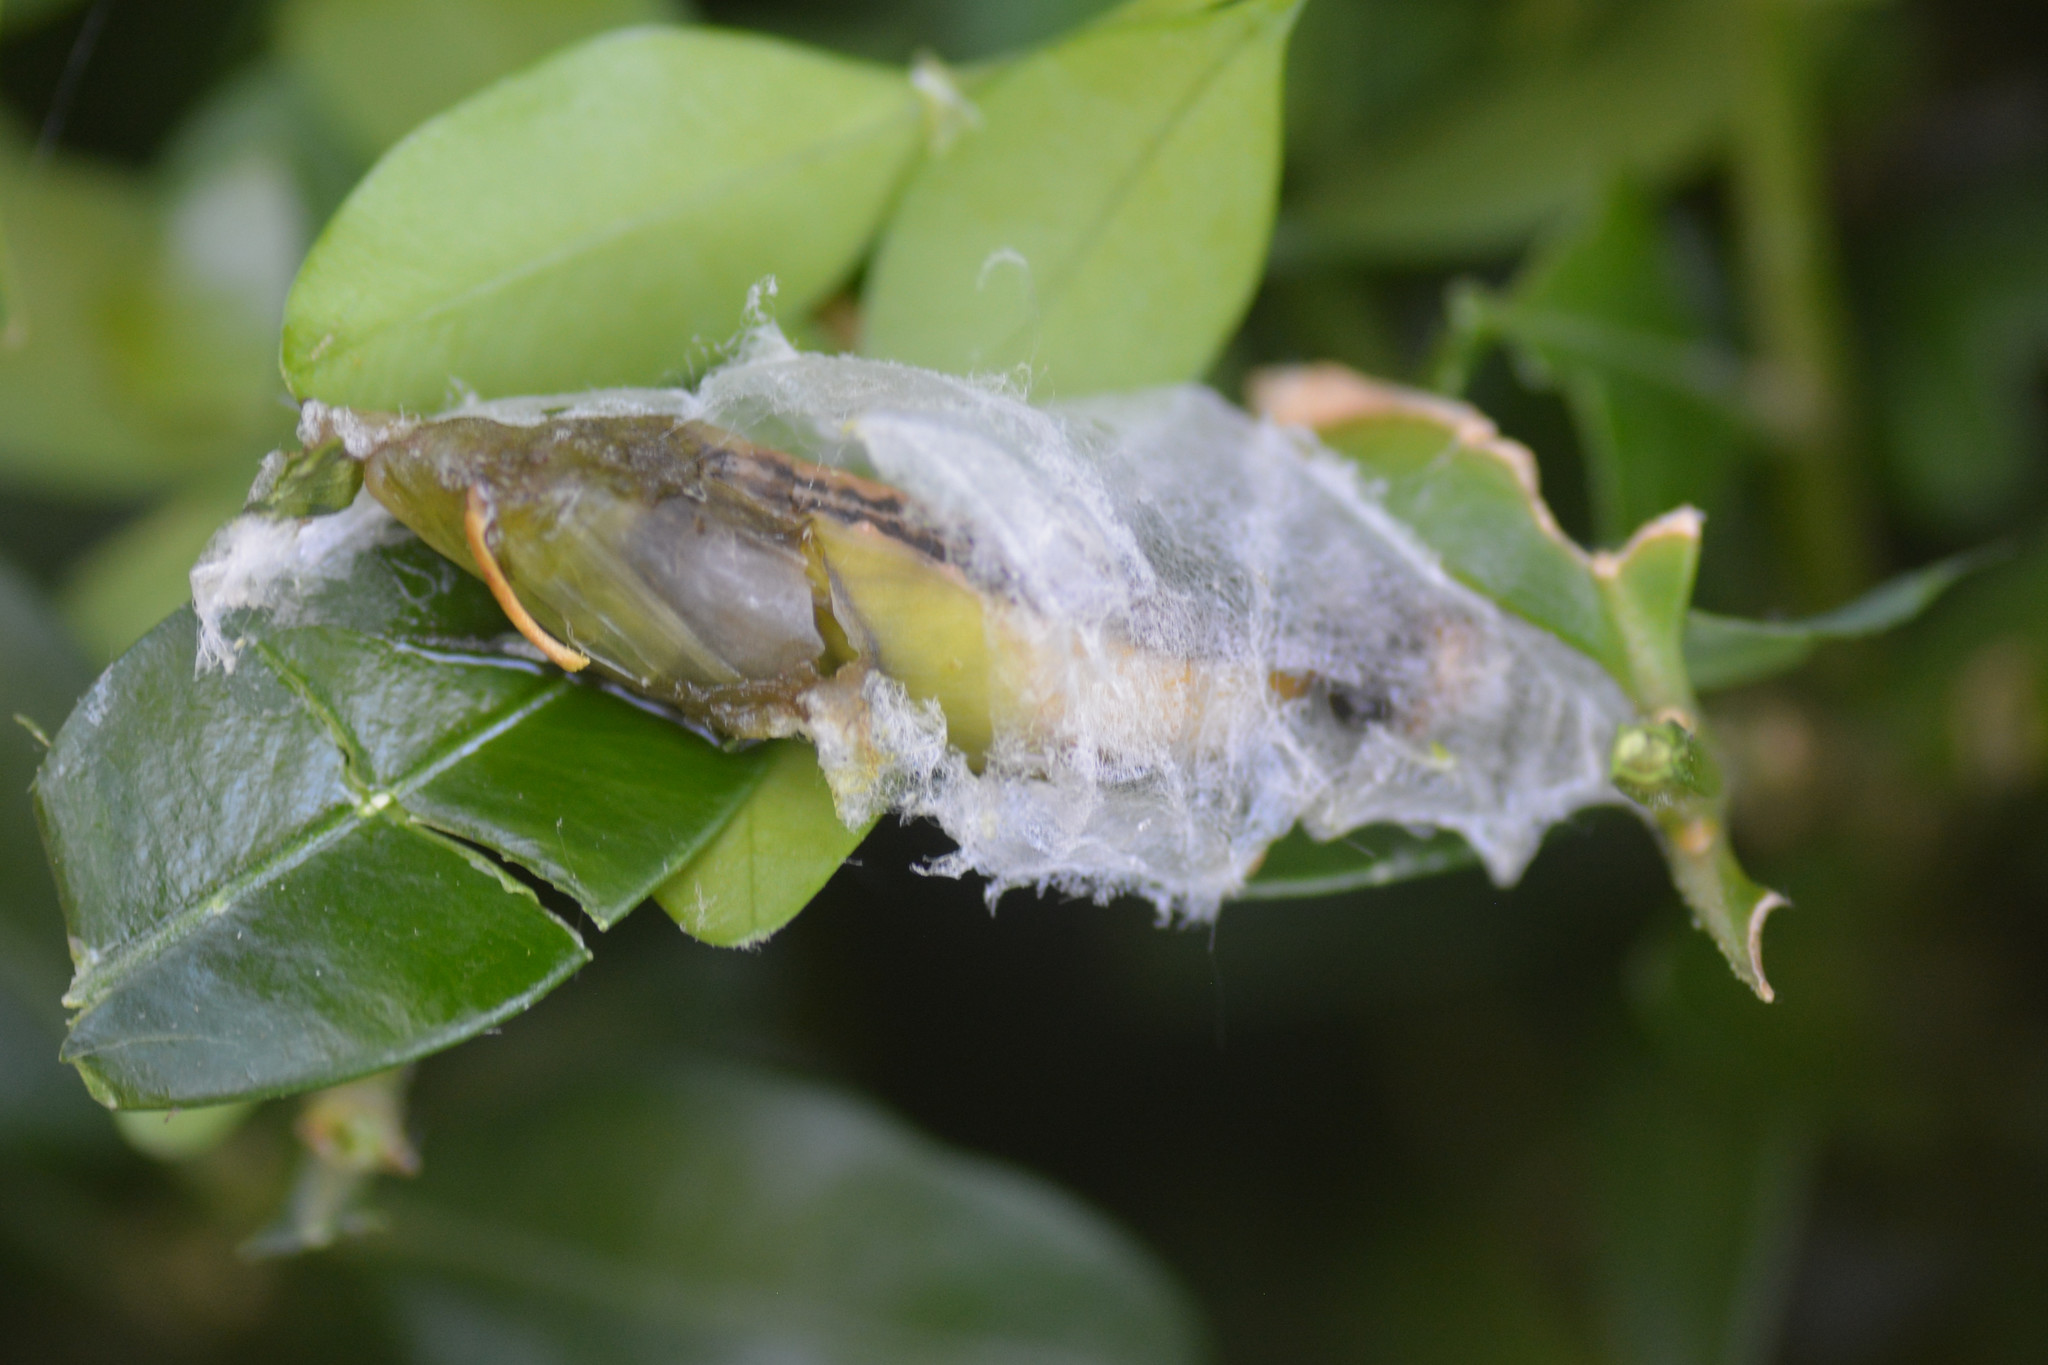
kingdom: Animalia
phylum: Arthropoda
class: Insecta
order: Lepidoptera
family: Crambidae
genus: Cydalima
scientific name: Cydalima perspectalis
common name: Box tree moth
